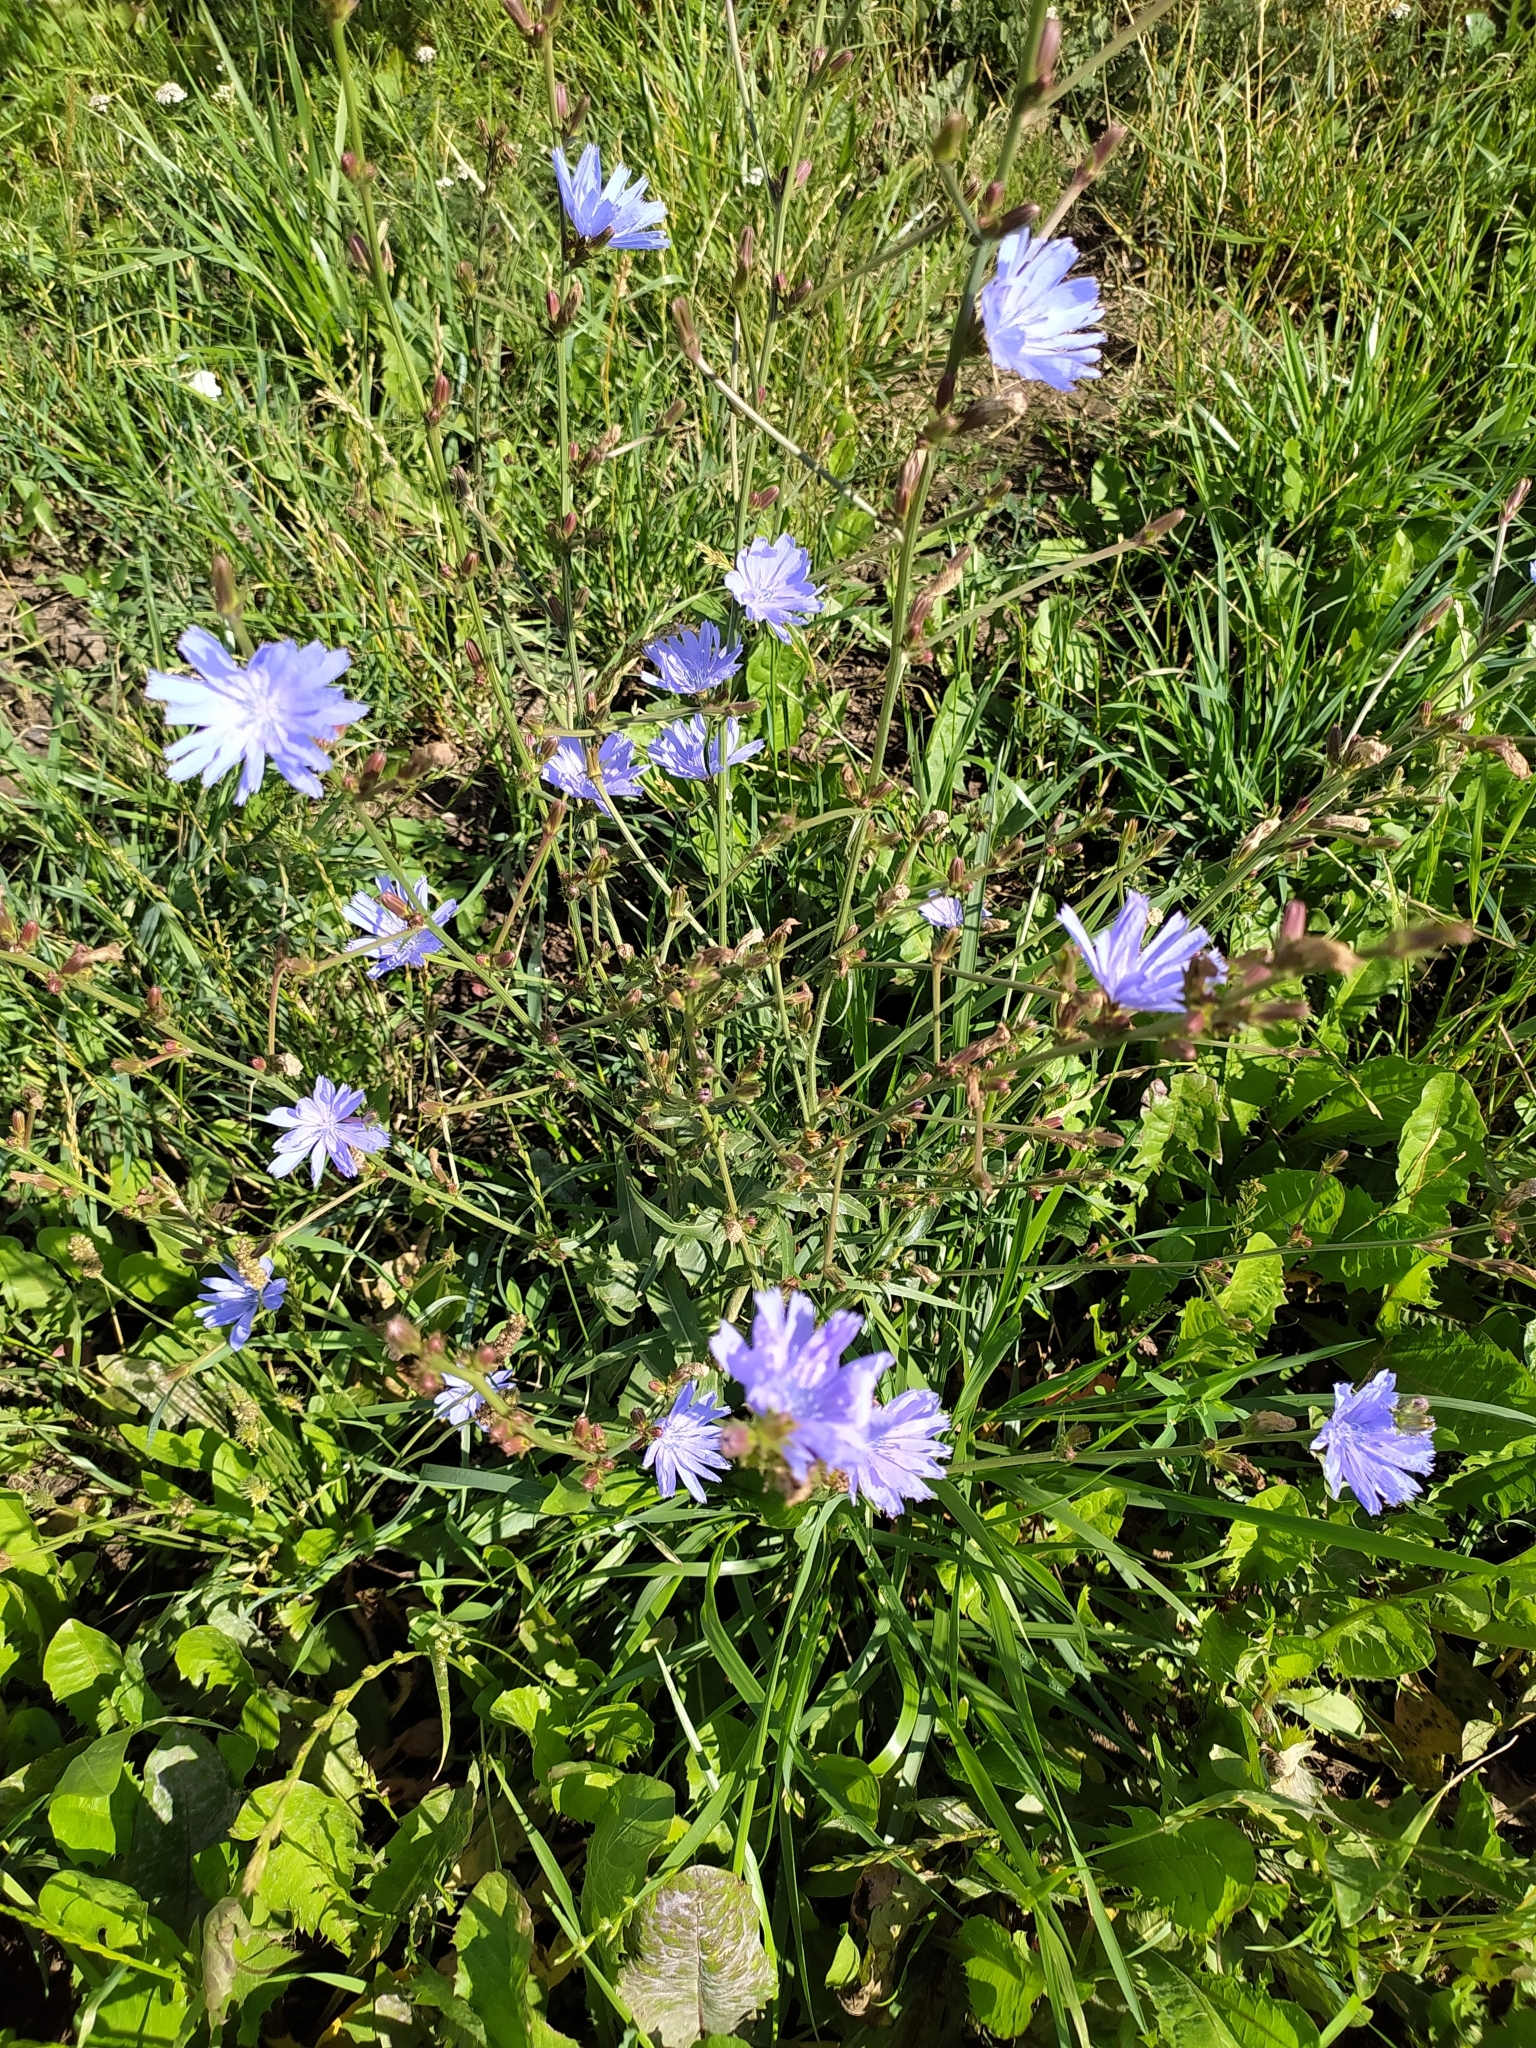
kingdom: Plantae
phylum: Tracheophyta
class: Magnoliopsida
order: Asterales
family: Asteraceae
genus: Cichorium
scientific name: Cichorium intybus
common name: Chicory
